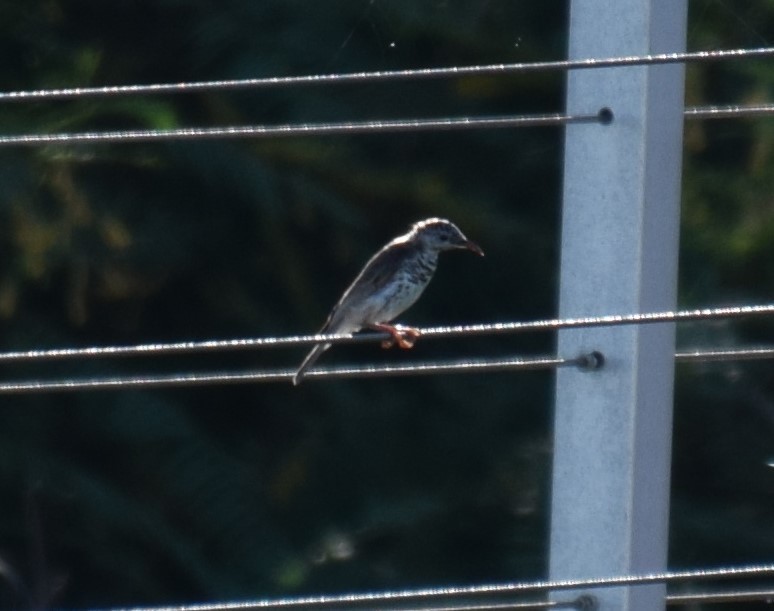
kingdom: Animalia
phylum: Chordata
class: Aves
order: Passeriformes
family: Meliphagidae
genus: Ramsayornis
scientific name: Ramsayornis fasciatus
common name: Bar-breasted honeyeater
